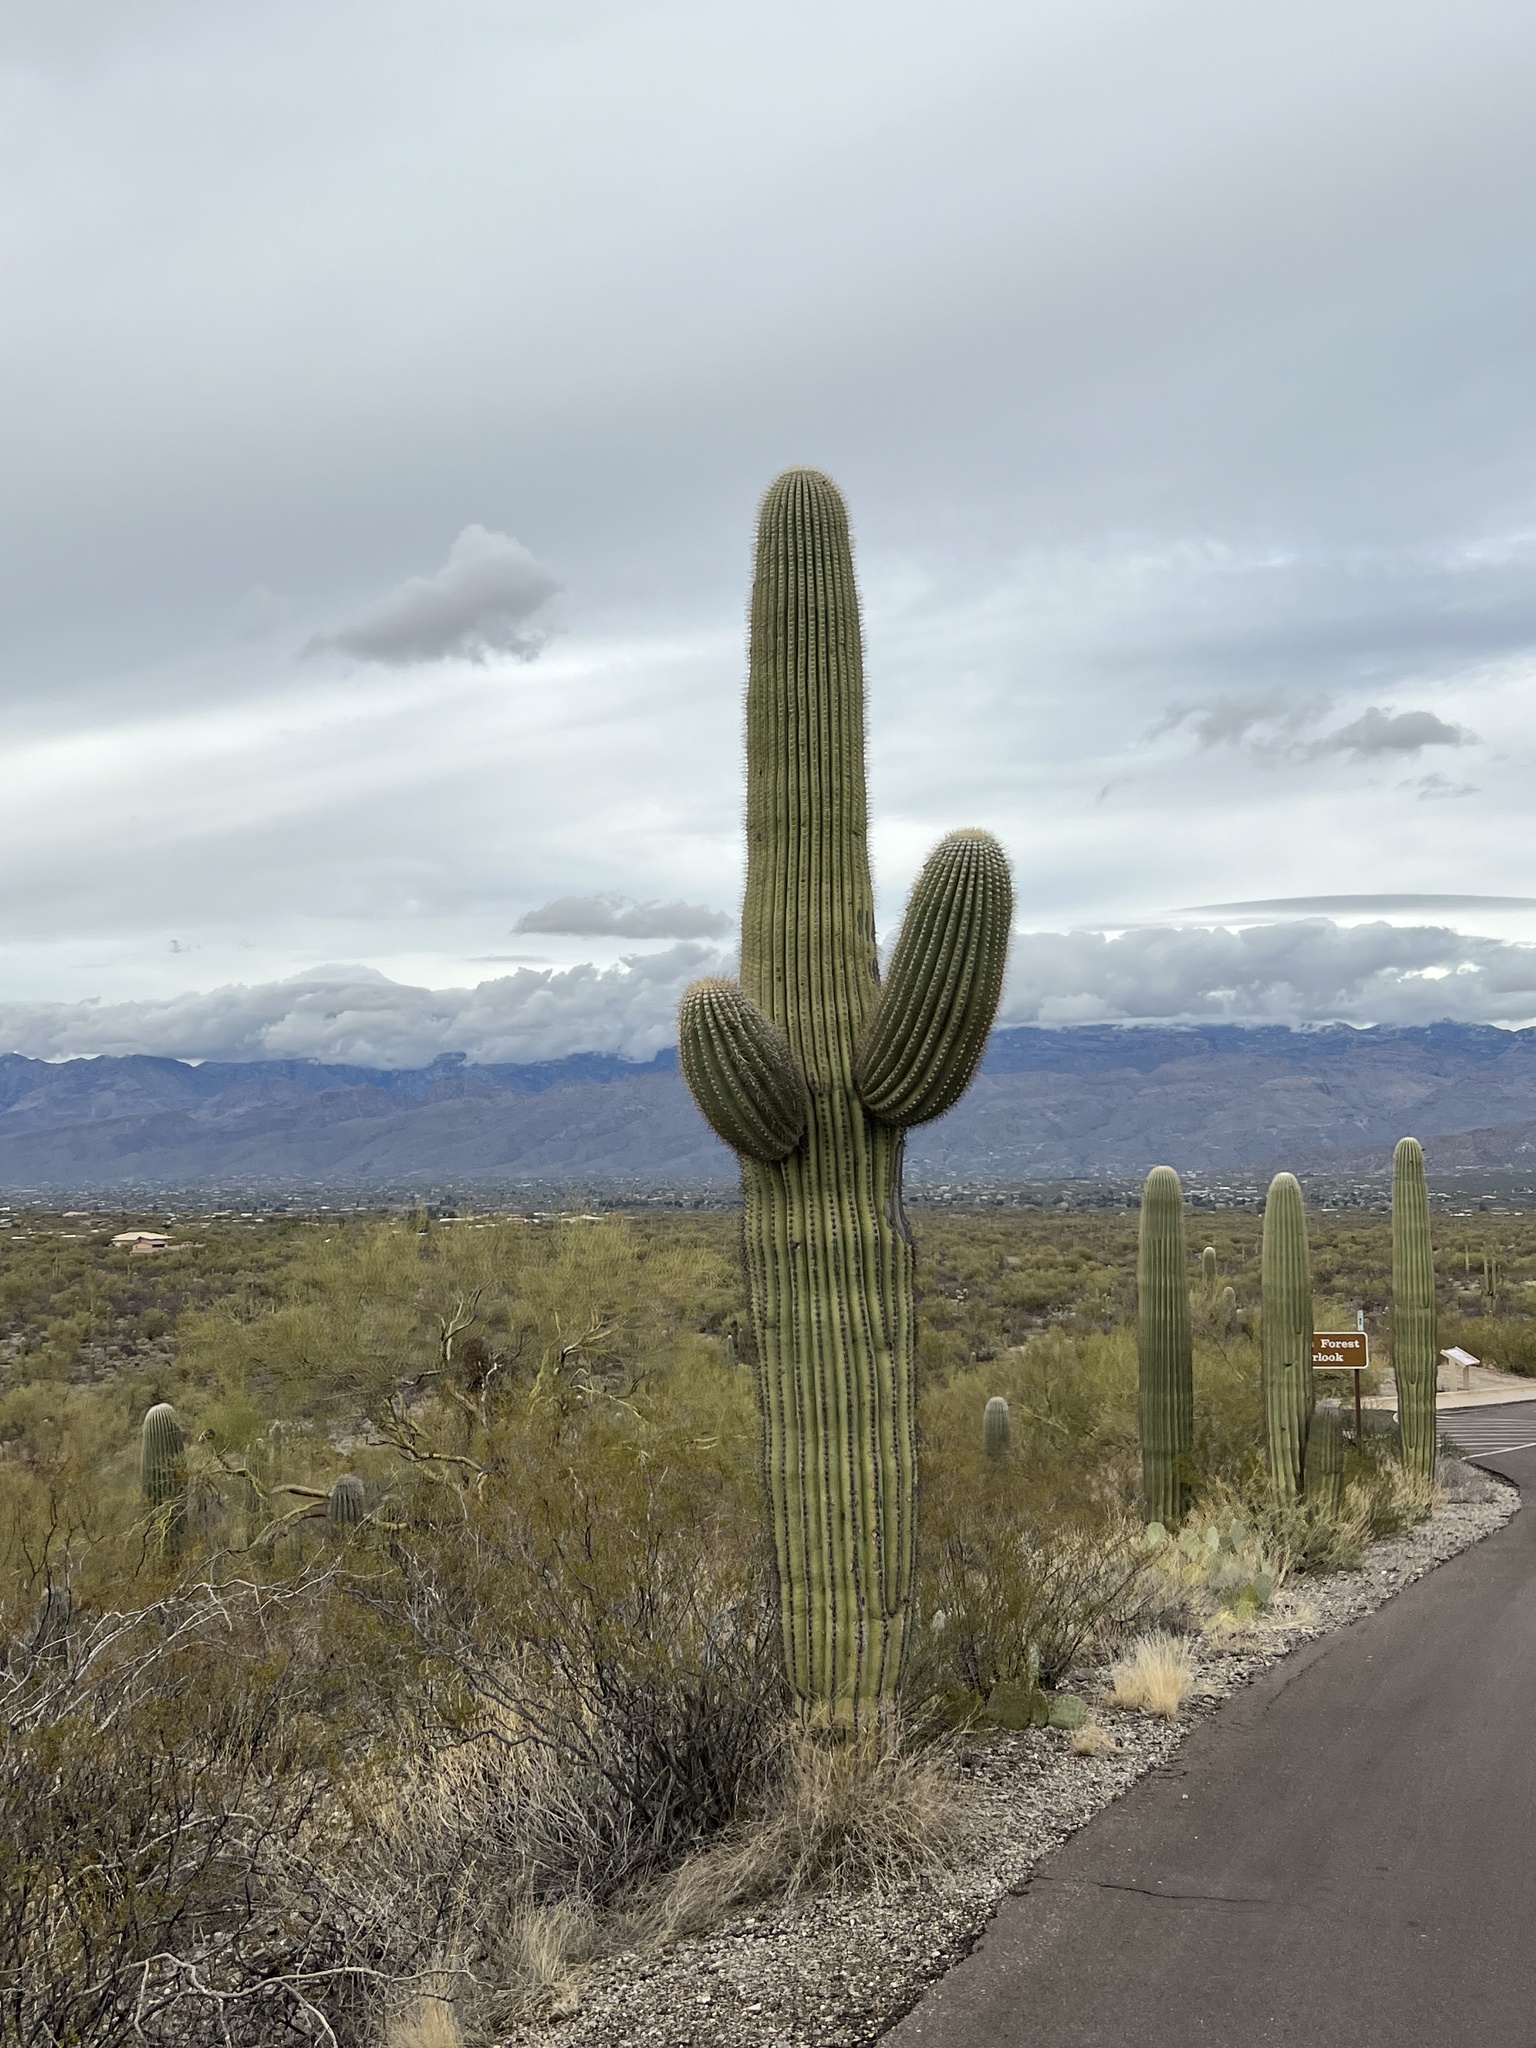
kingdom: Plantae
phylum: Tracheophyta
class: Magnoliopsida
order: Caryophyllales
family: Cactaceae
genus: Carnegiea
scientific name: Carnegiea gigantea
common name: Saguaro
